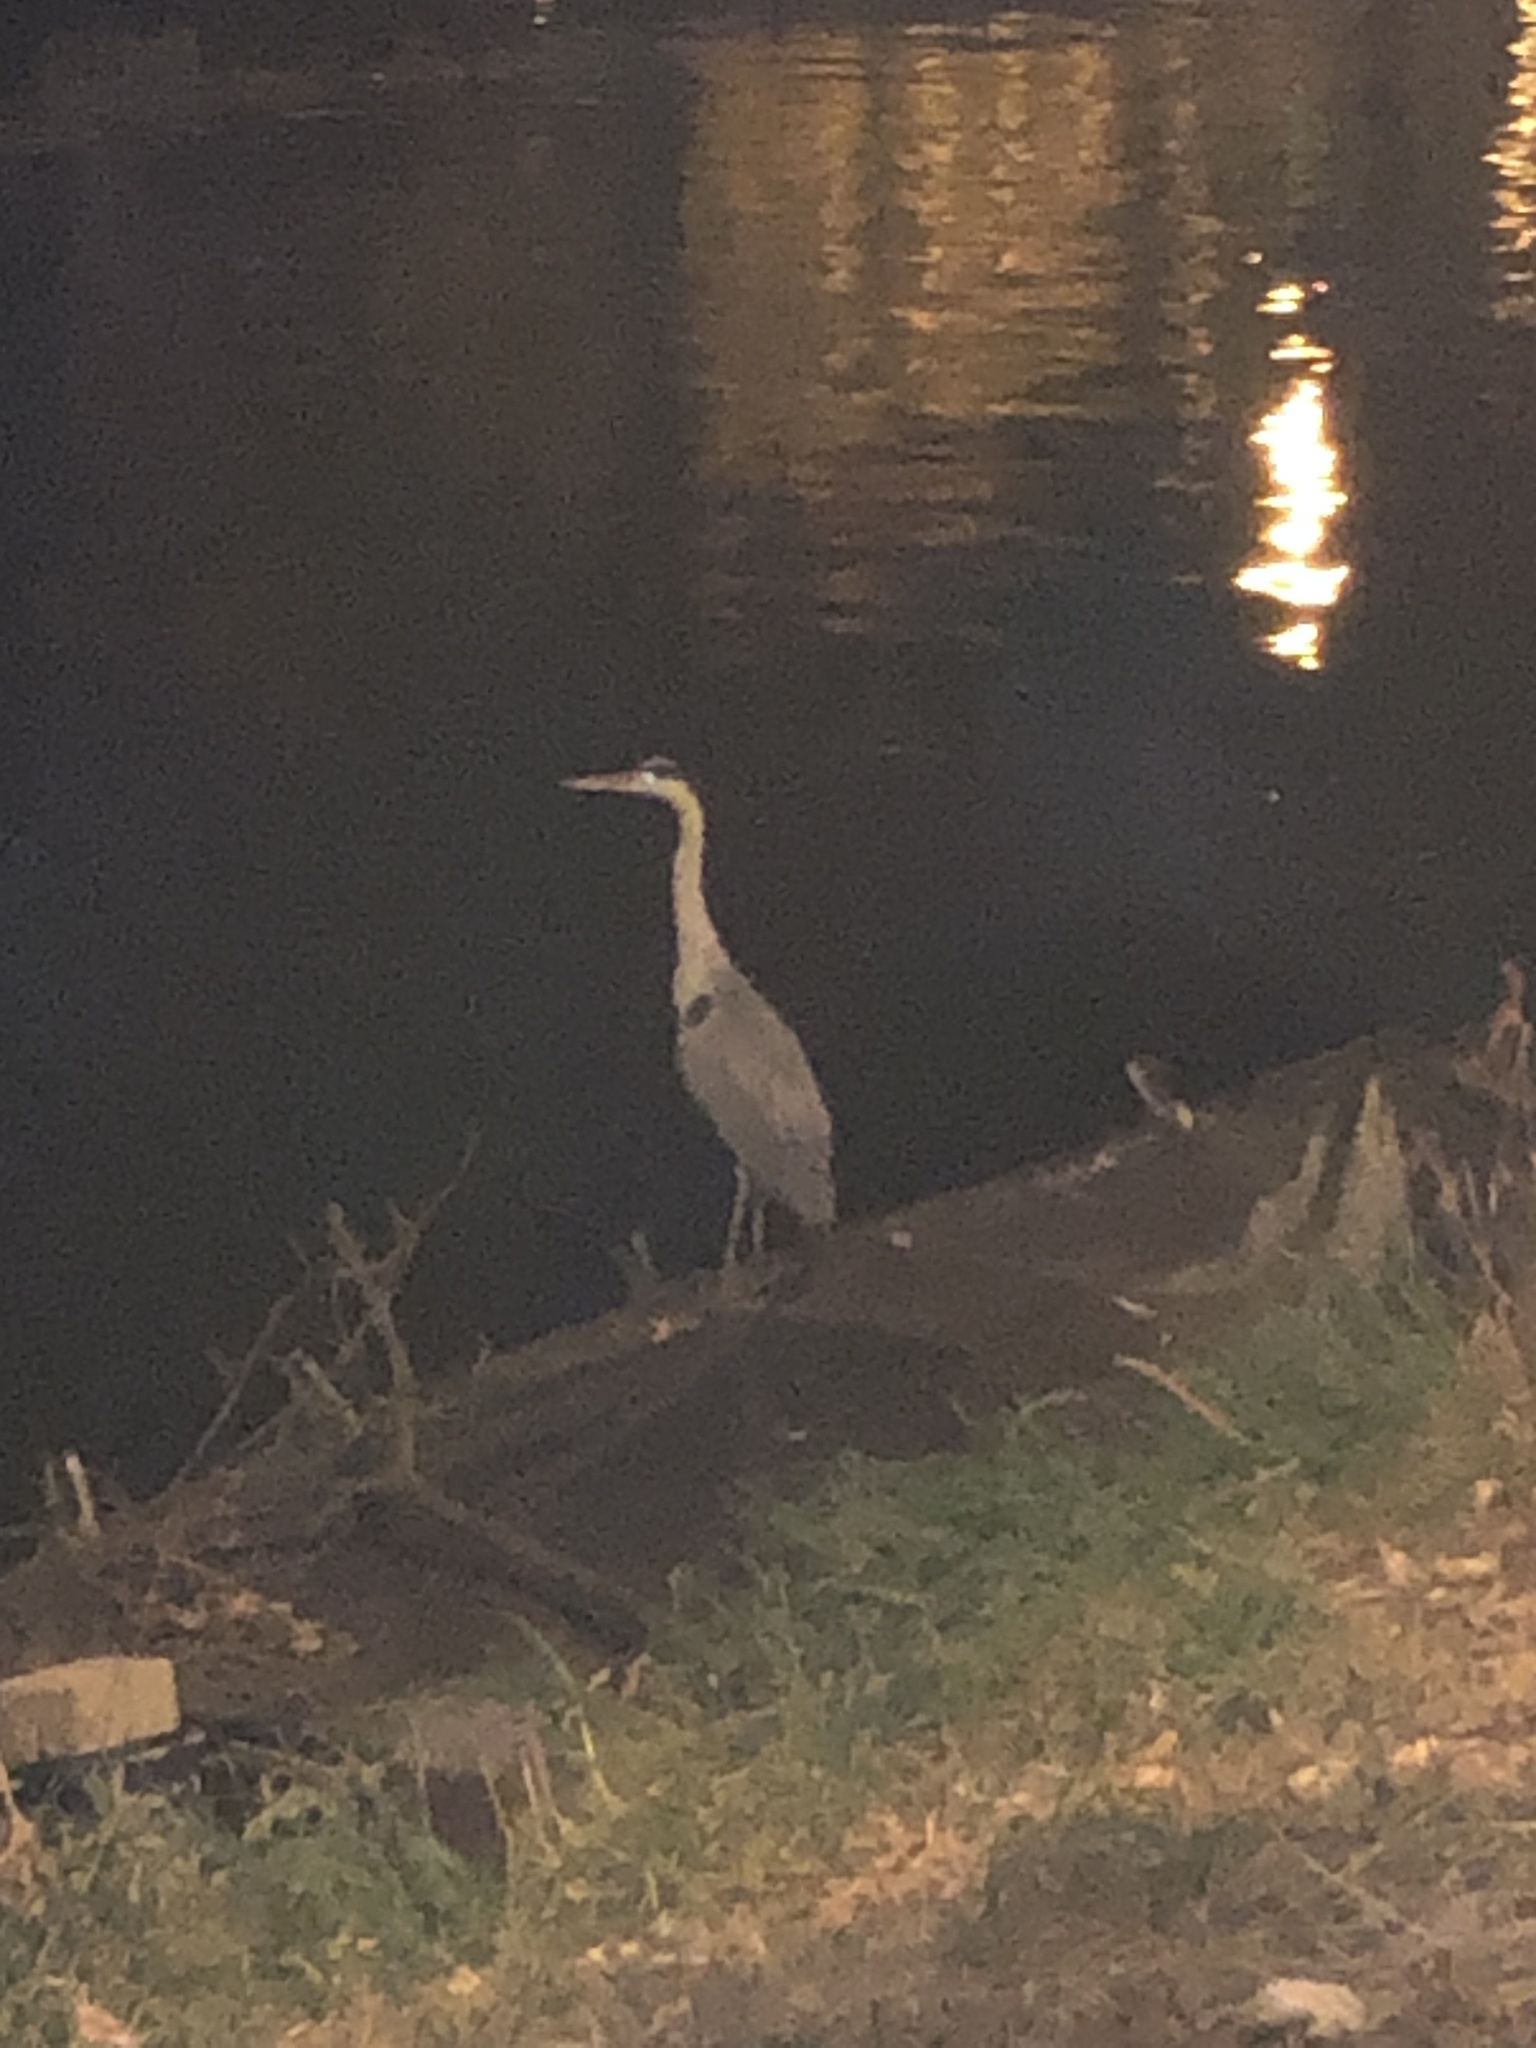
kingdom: Animalia
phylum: Chordata
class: Aves
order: Pelecaniformes
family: Ardeidae
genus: Ardea
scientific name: Ardea cinerea
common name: Grey heron
